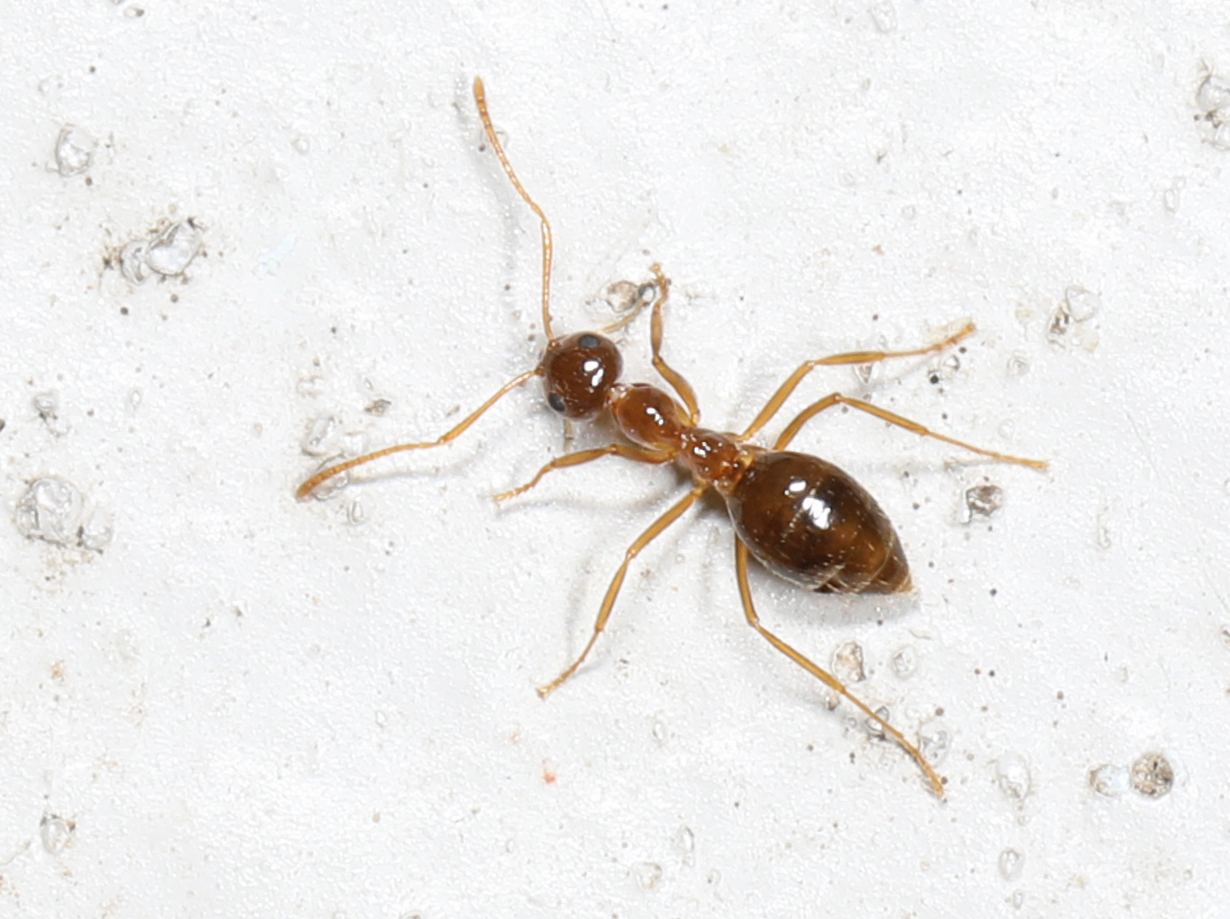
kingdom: Animalia
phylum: Arthropoda
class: Insecta
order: Hymenoptera
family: Formicidae
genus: Prenolepis
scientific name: Prenolepis imparis
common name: Small honey ant
